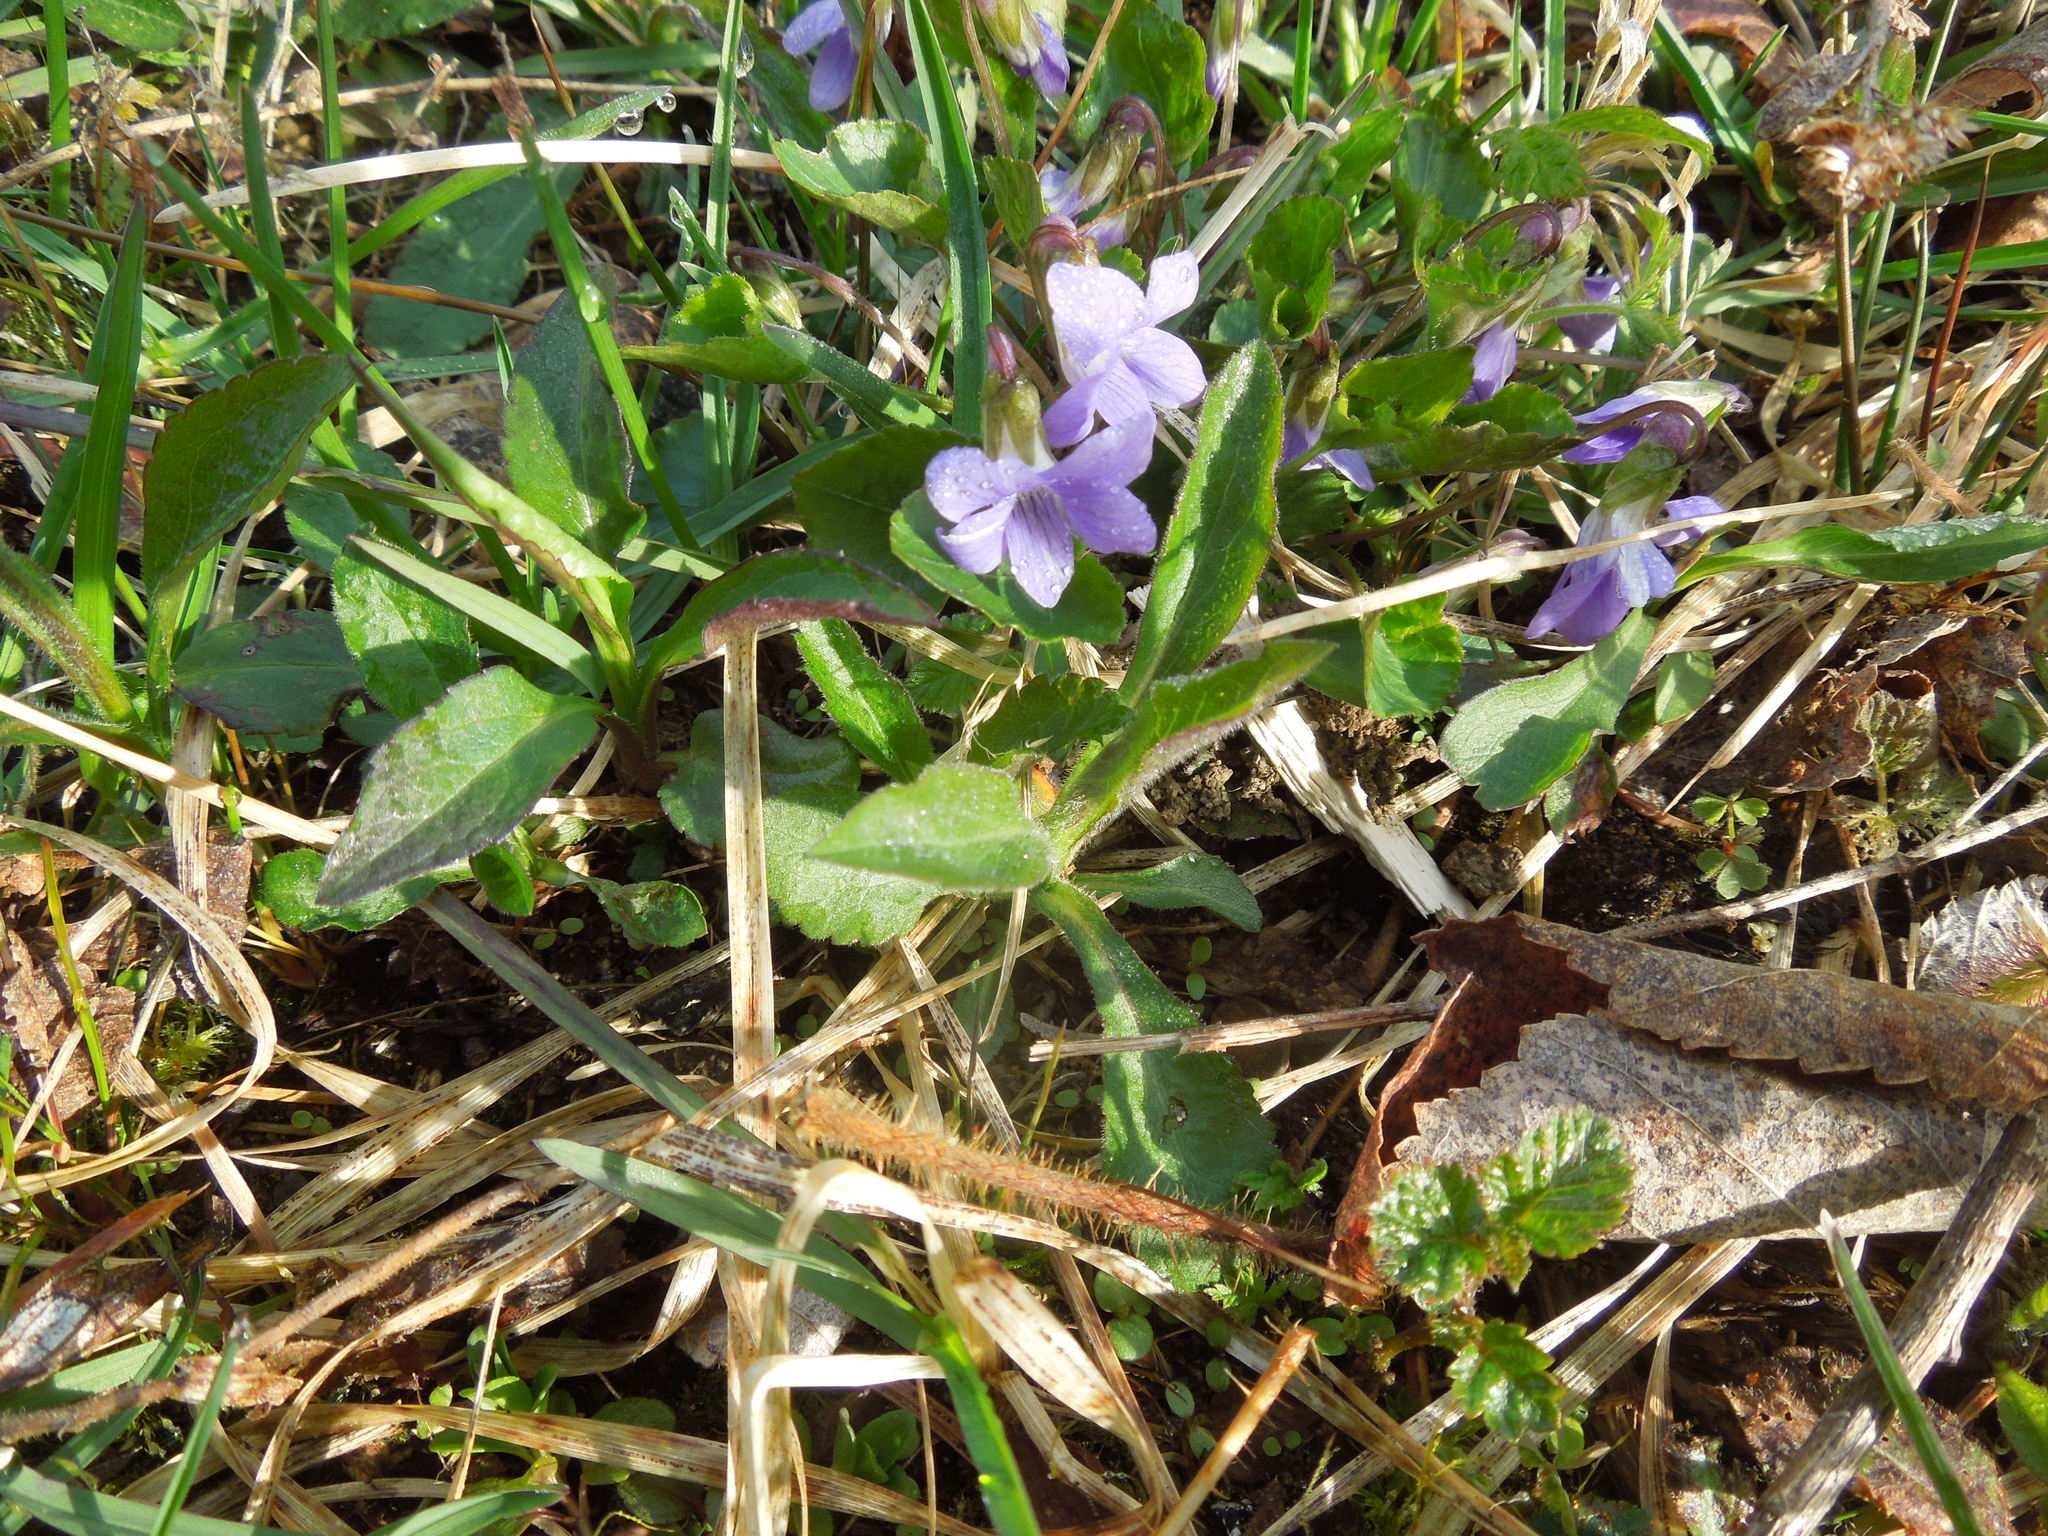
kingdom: Plantae
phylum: Tracheophyta
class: Magnoliopsida
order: Malpighiales
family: Violaceae
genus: Viola
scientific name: Viola
